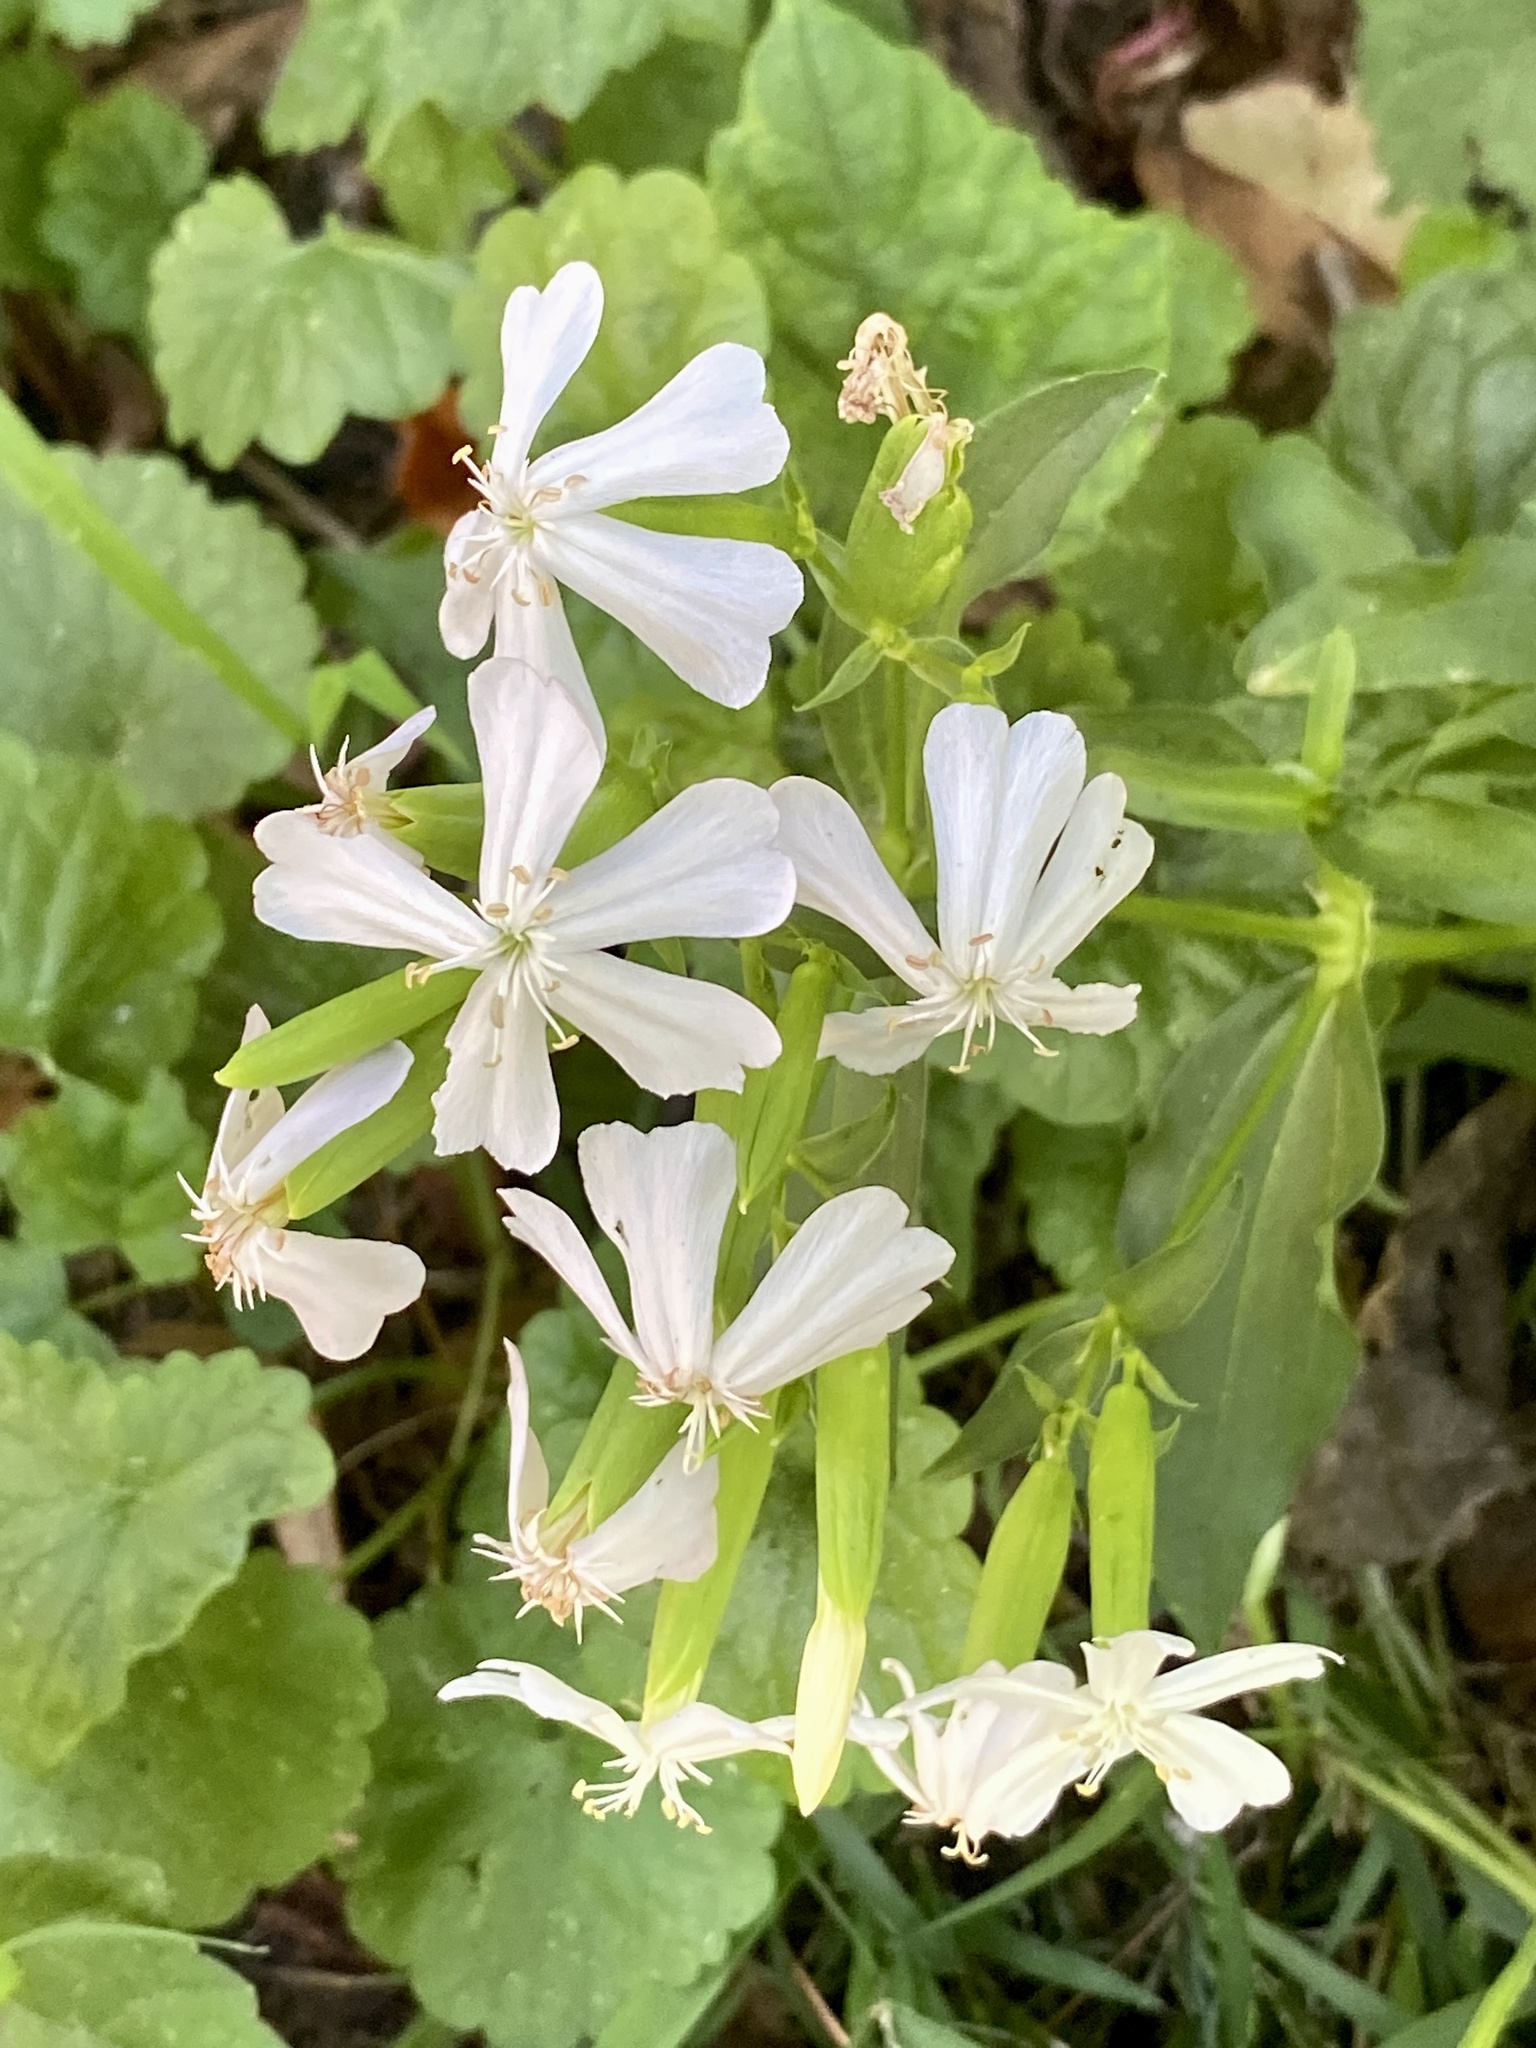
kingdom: Plantae
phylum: Tracheophyta
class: Magnoliopsida
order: Caryophyllales
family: Caryophyllaceae
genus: Saponaria
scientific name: Saponaria officinalis
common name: Soapwort
